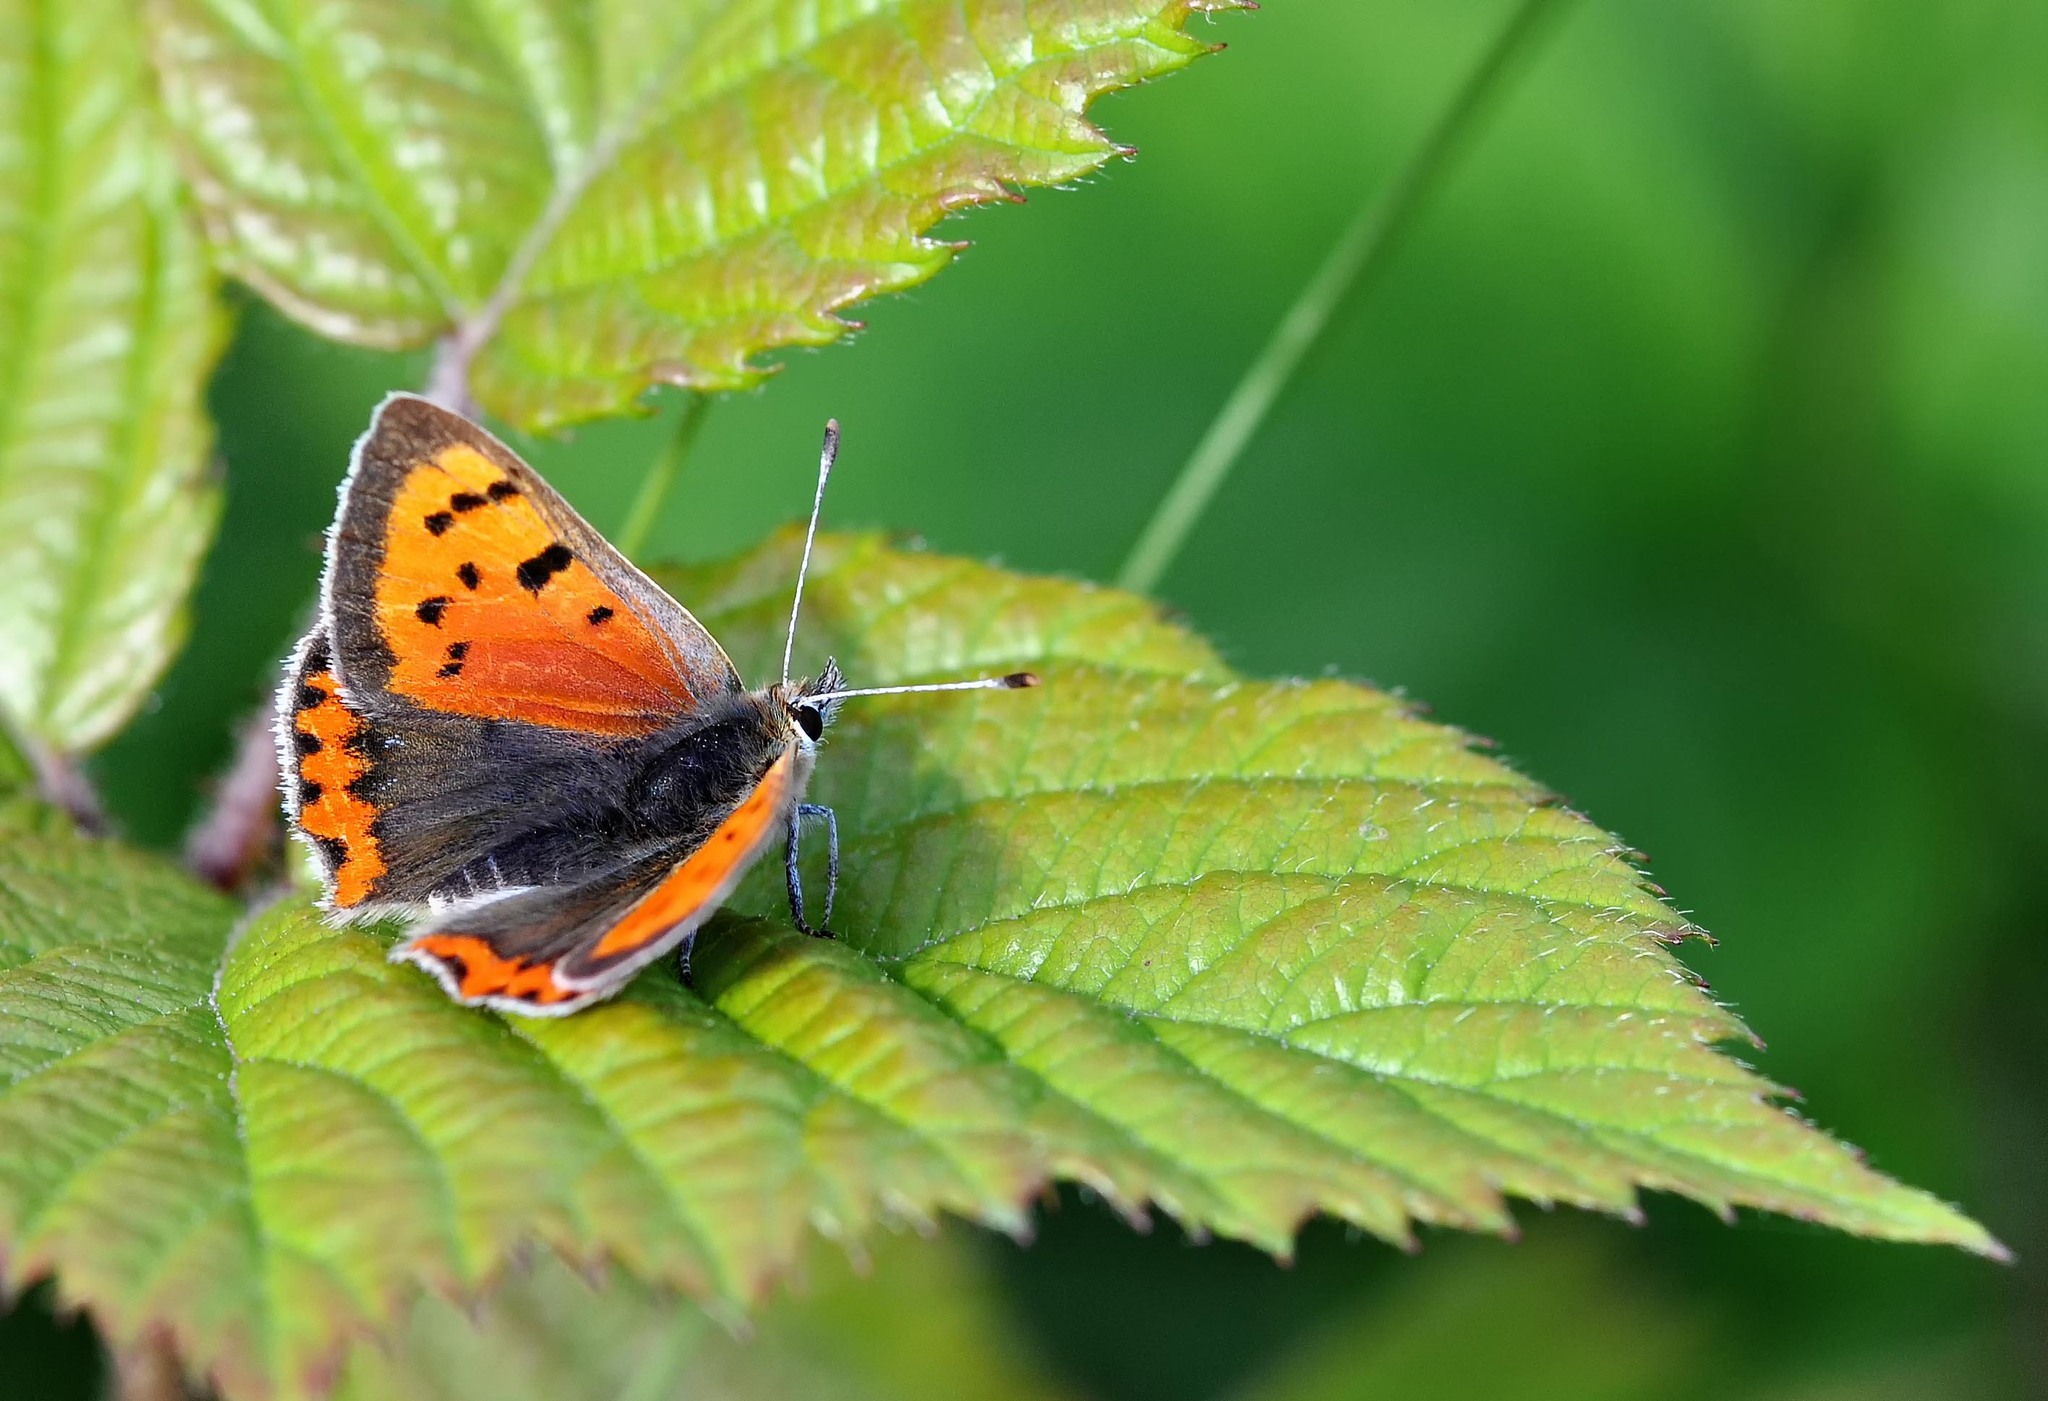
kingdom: Animalia
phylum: Arthropoda
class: Insecta
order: Lepidoptera
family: Lycaenidae
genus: Lycaena
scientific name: Lycaena phlaeas
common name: Small copper
